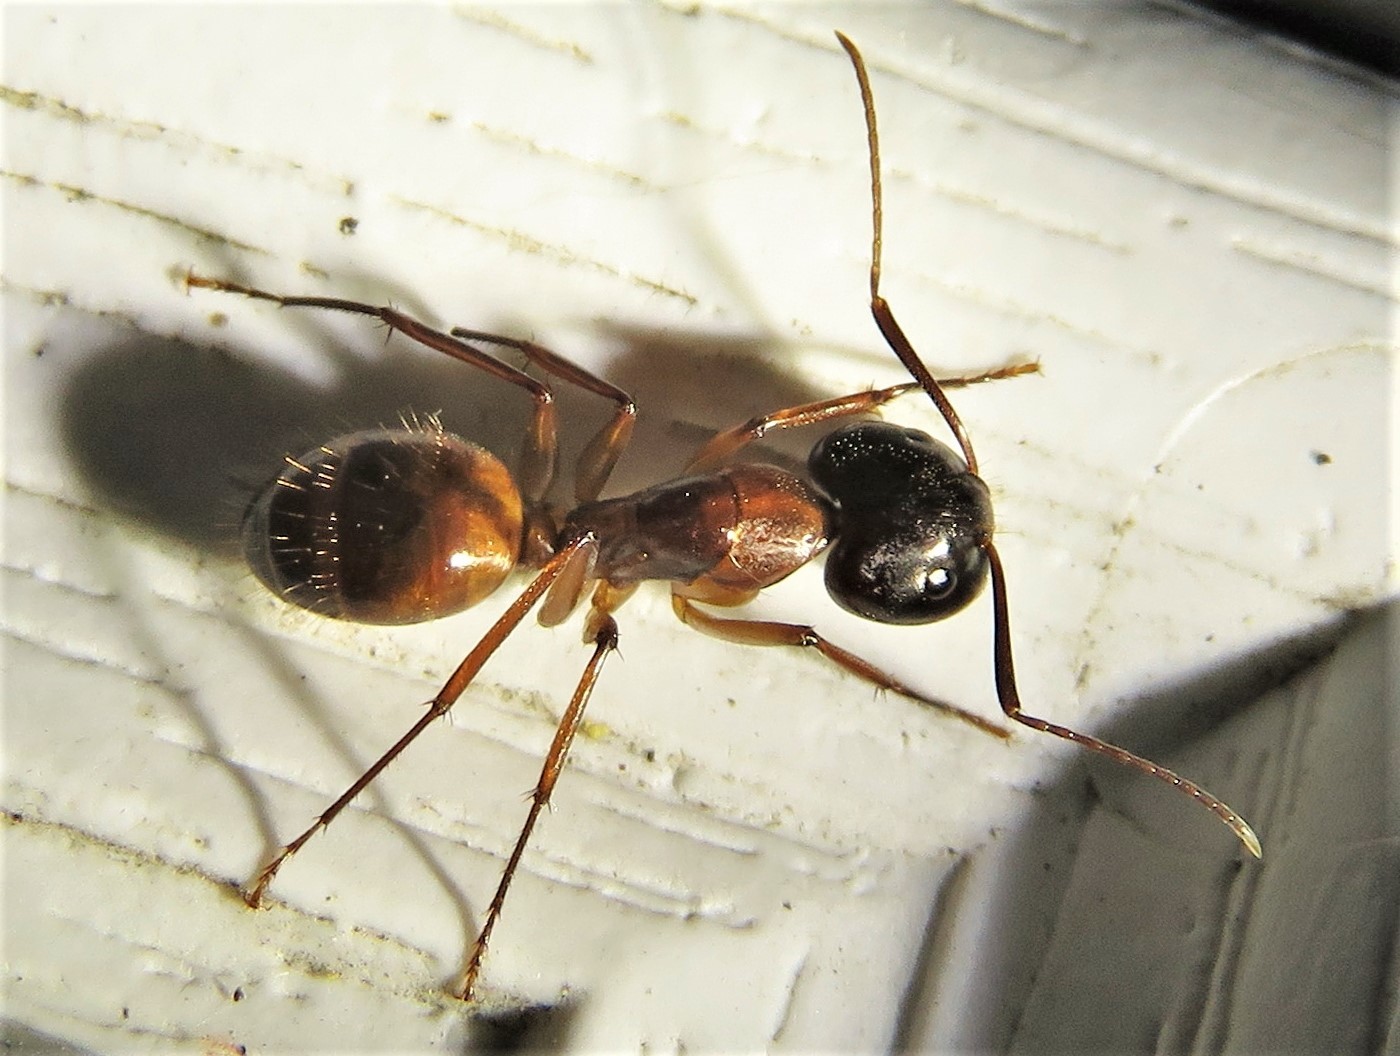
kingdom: Animalia
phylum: Arthropoda
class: Insecta
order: Hymenoptera
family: Formicidae
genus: Camponotus
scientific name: Camponotus americanus
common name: American carpenter ant
